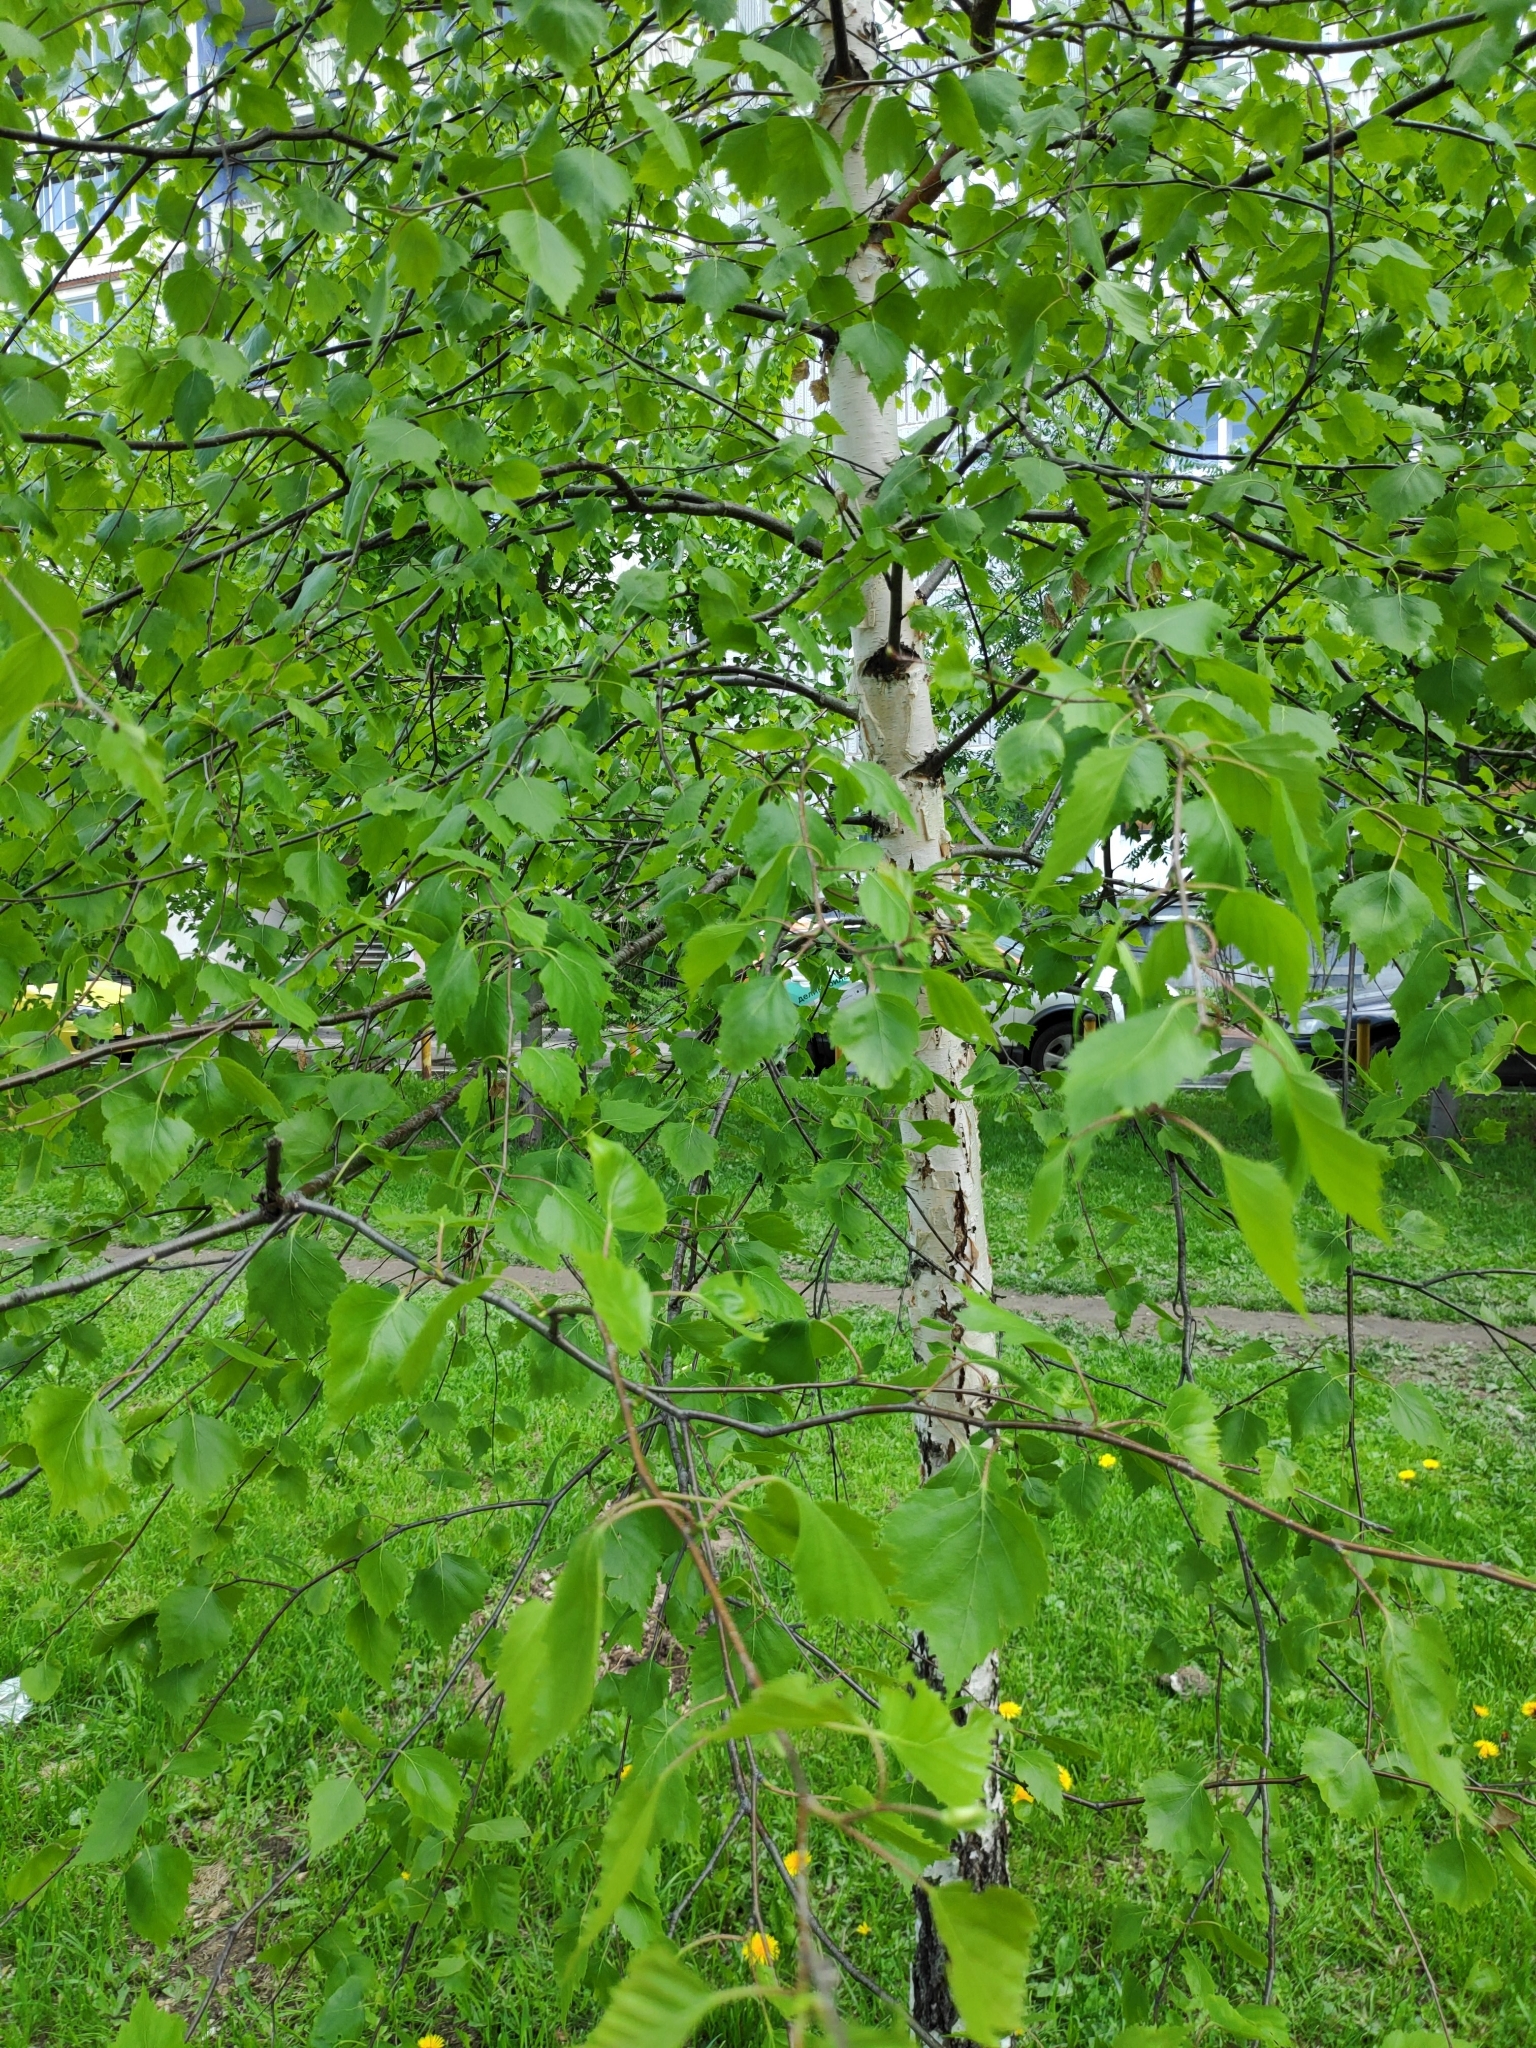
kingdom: Plantae
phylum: Tracheophyta
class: Magnoliopsida
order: Fagales
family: Betulaceae
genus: Betula
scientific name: Betula pendula
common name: Silver birch
